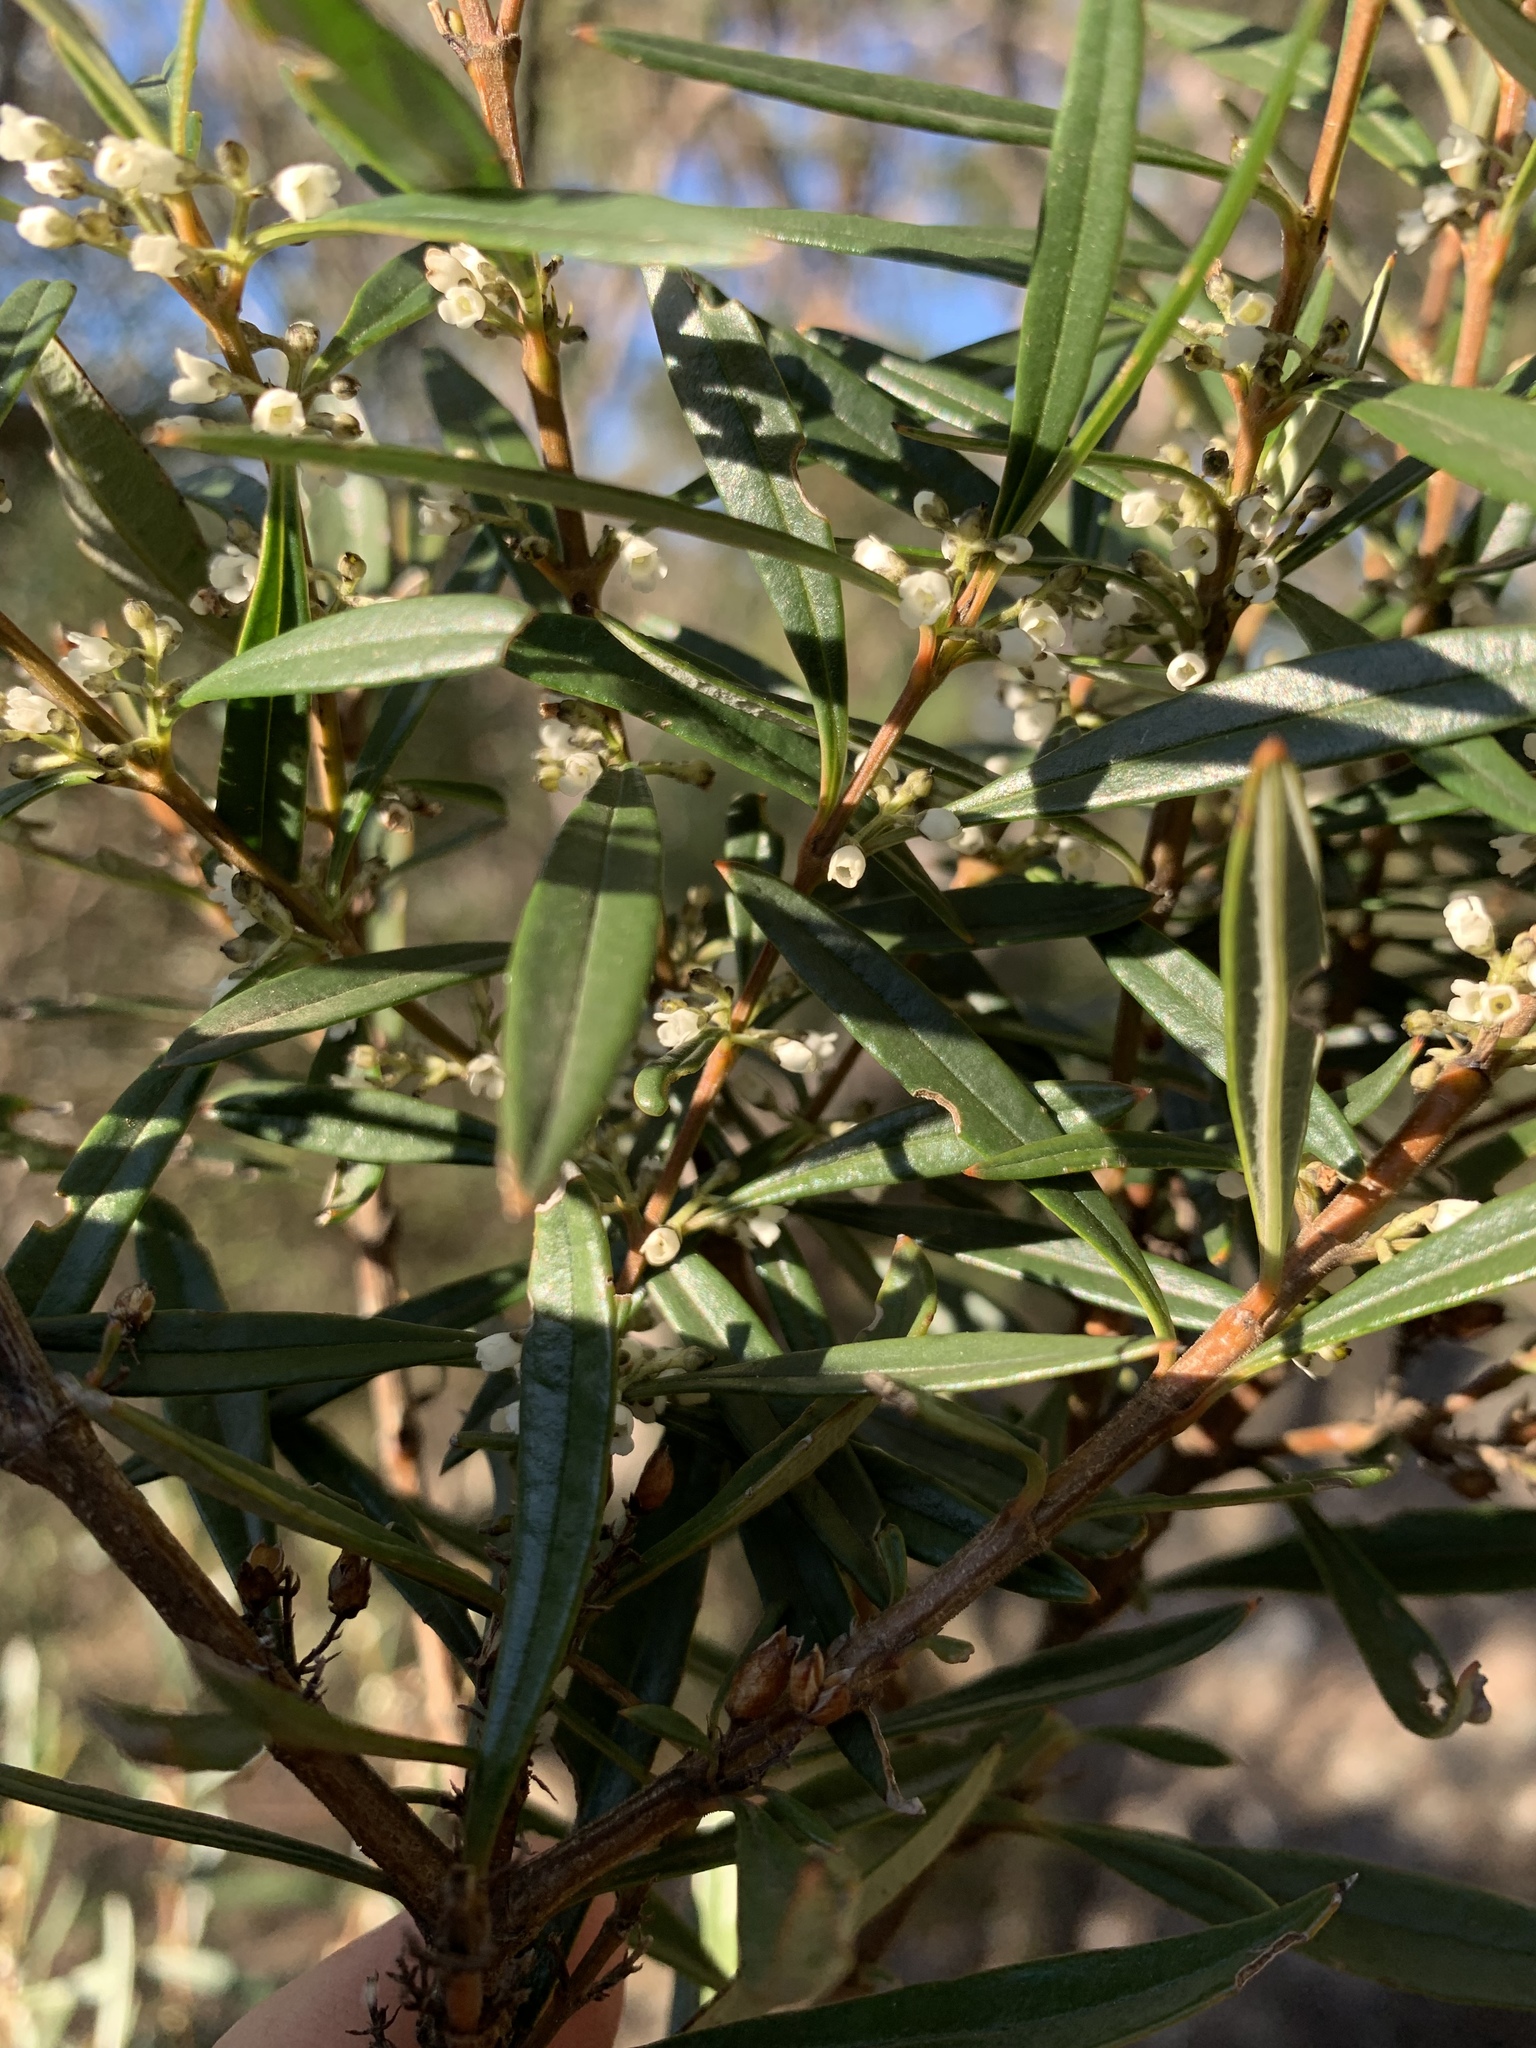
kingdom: Plantae
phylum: Tracheophyta
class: Magnoliopsida
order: Gentianales
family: Loganiaceae
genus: Logania
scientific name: Logania albiflora
